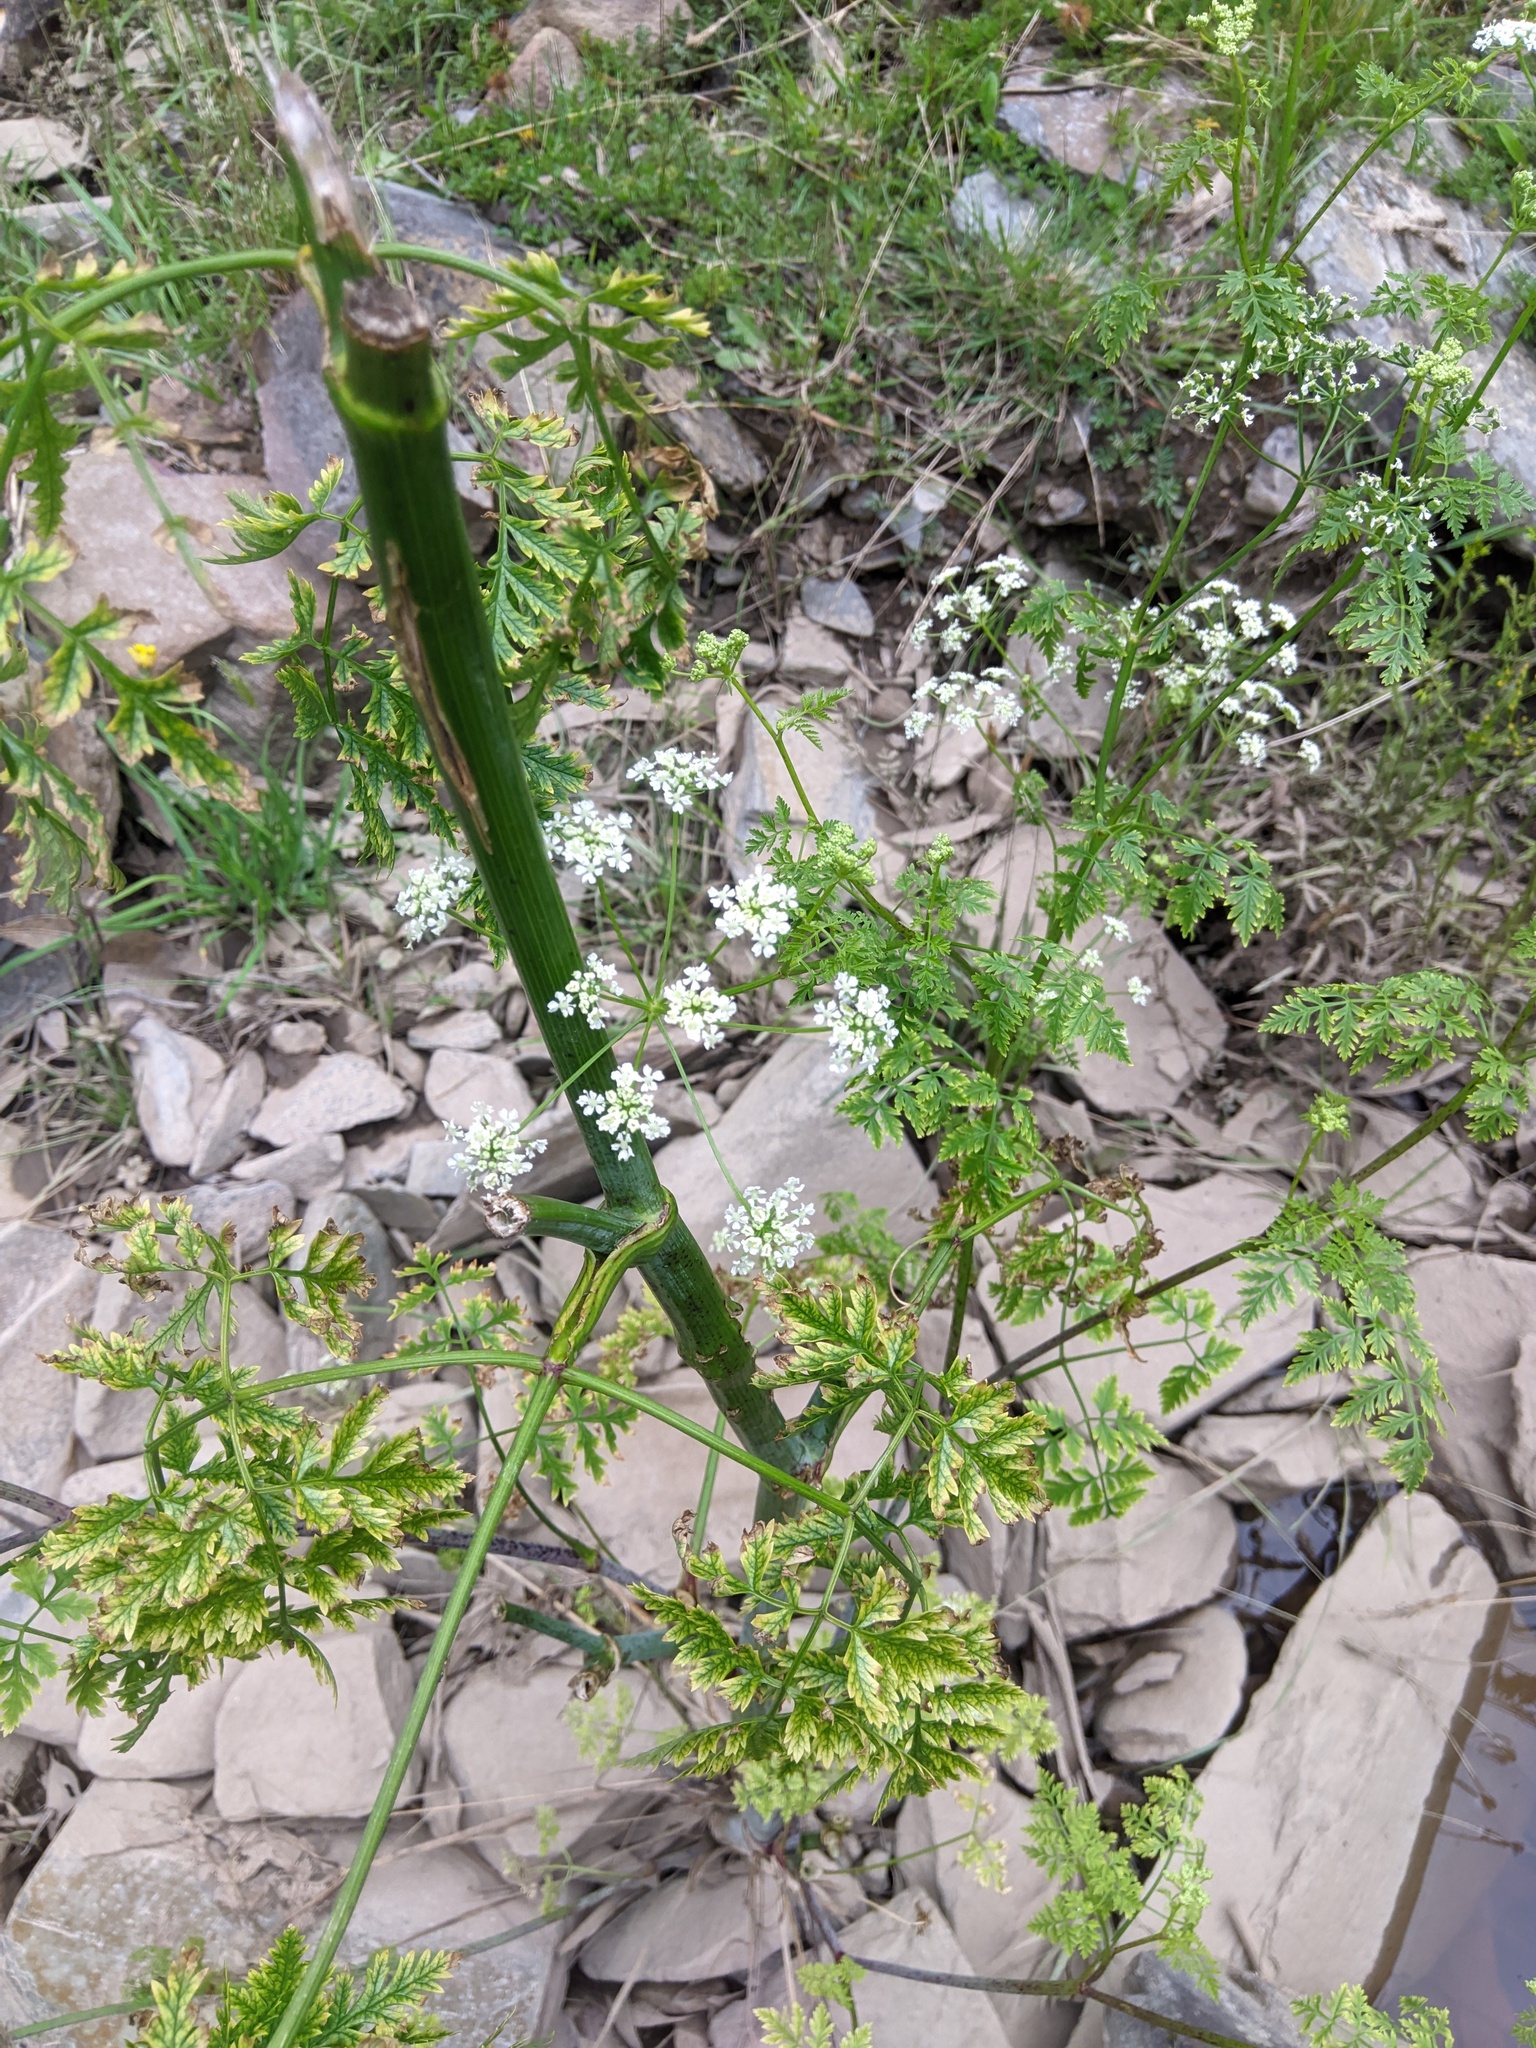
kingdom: Plantae
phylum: Tracheophyta
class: Magnoliopsida
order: Apiales
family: Apiaceae
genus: Conium
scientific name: Conium maculatum
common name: Hemlock
